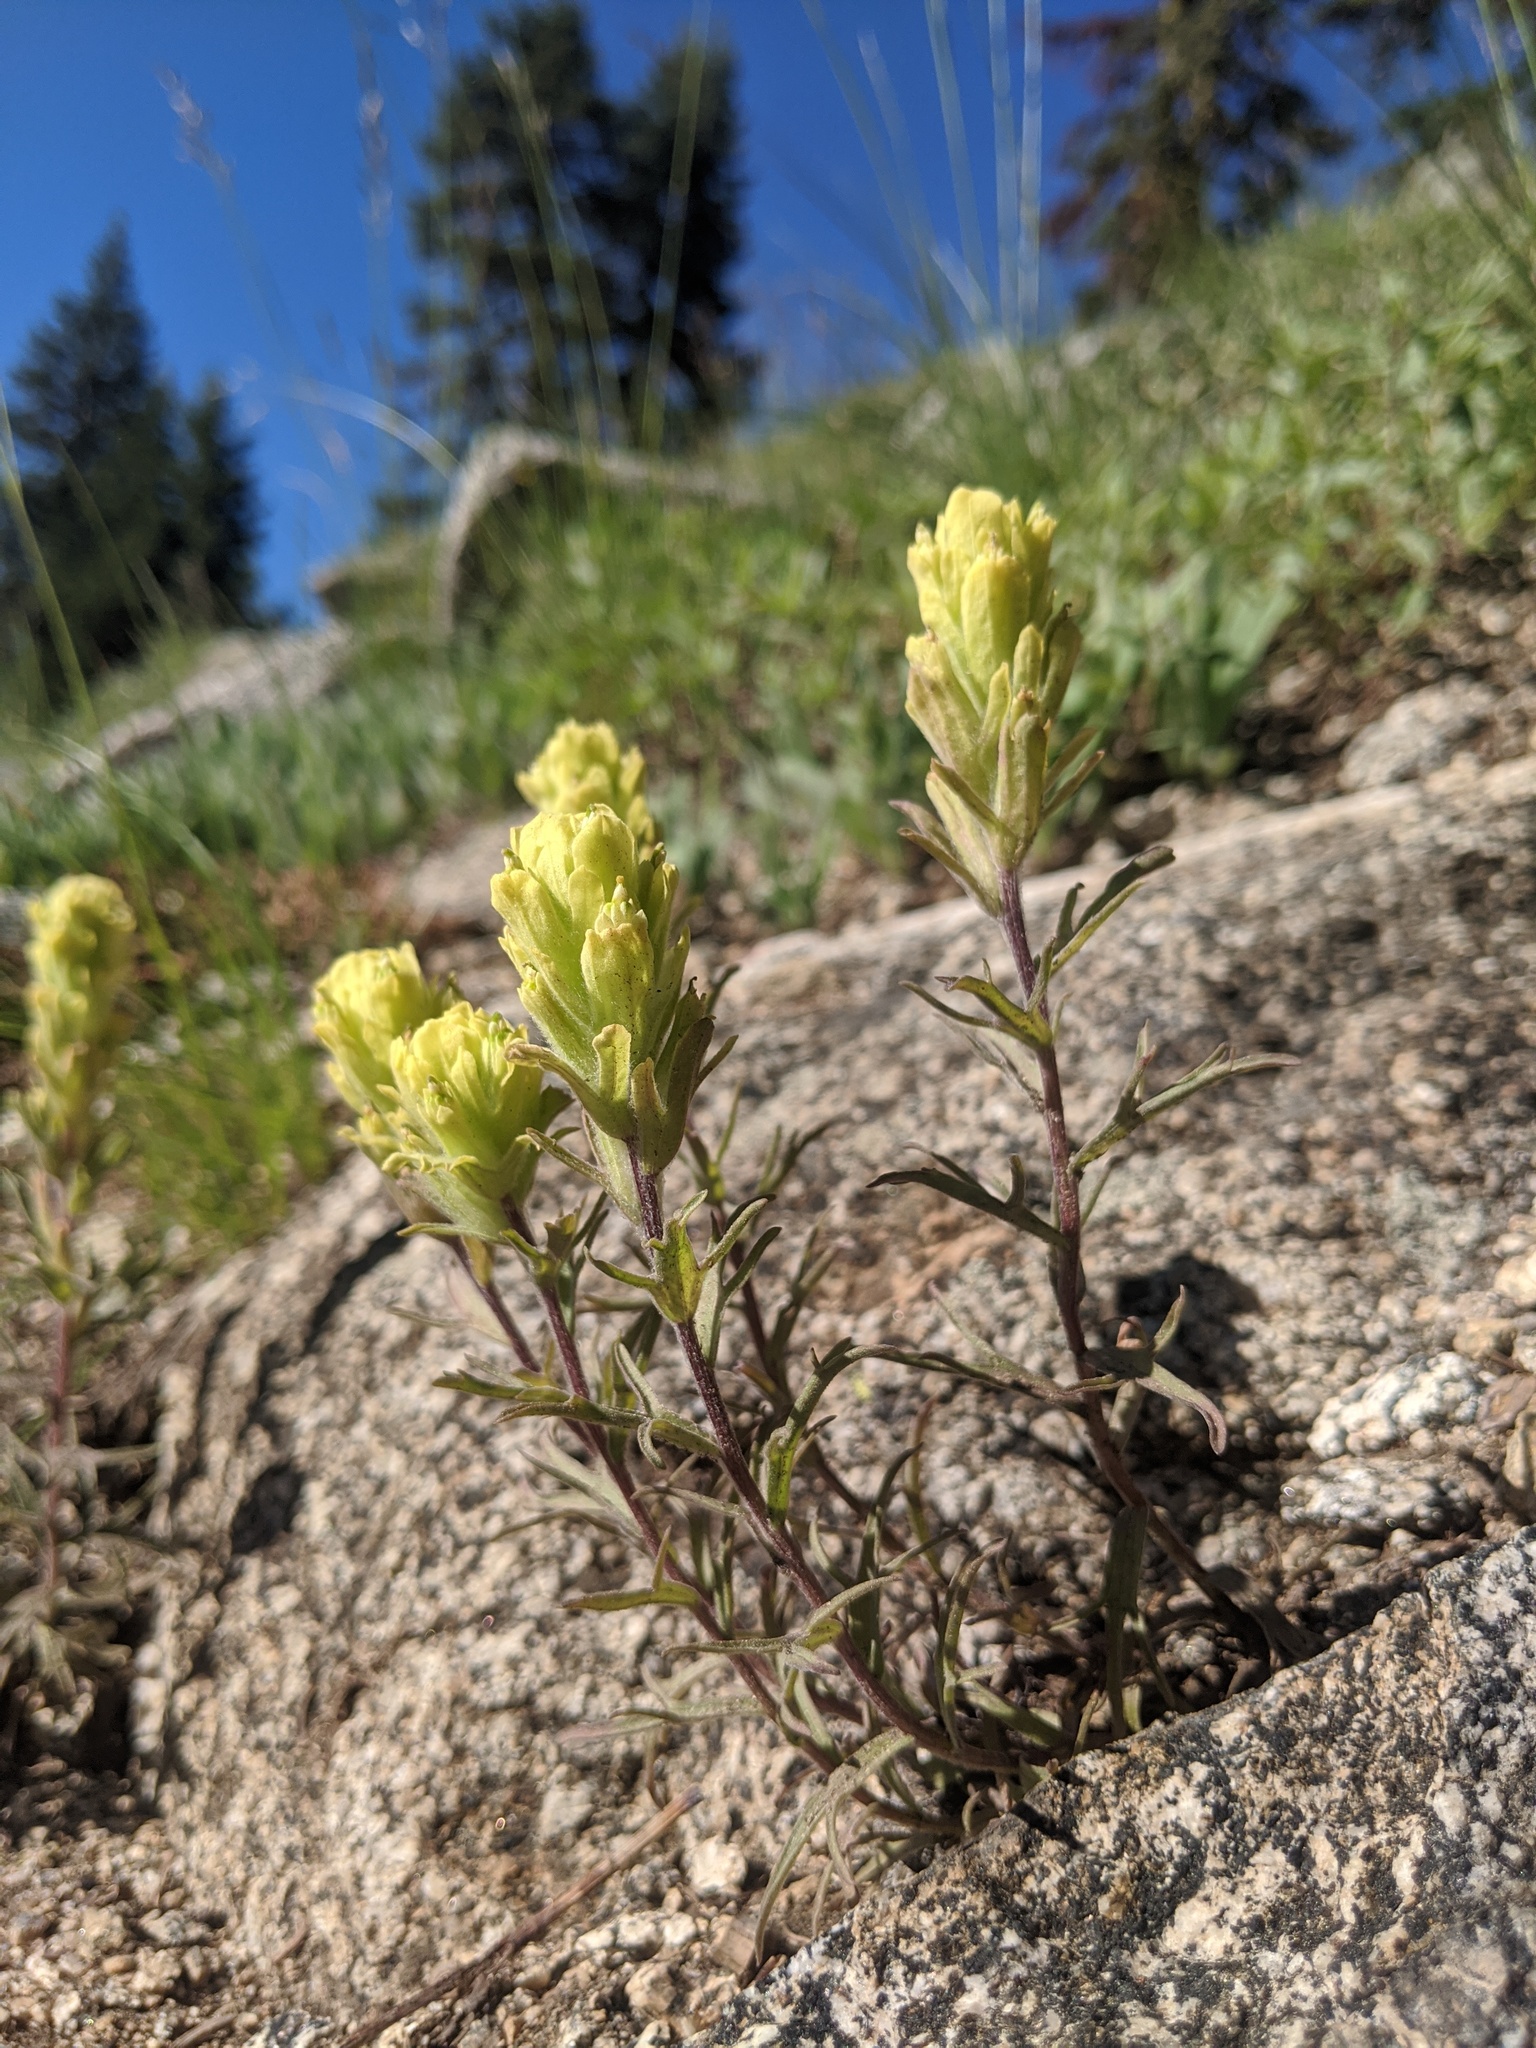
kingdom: Plantae
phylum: Tracheophyta
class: Magnoliopsida
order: Lamiales
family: Orobanchaceae
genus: Castilleja
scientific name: Castilleja arachnoidea
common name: Cobwebby indian paintbrush
